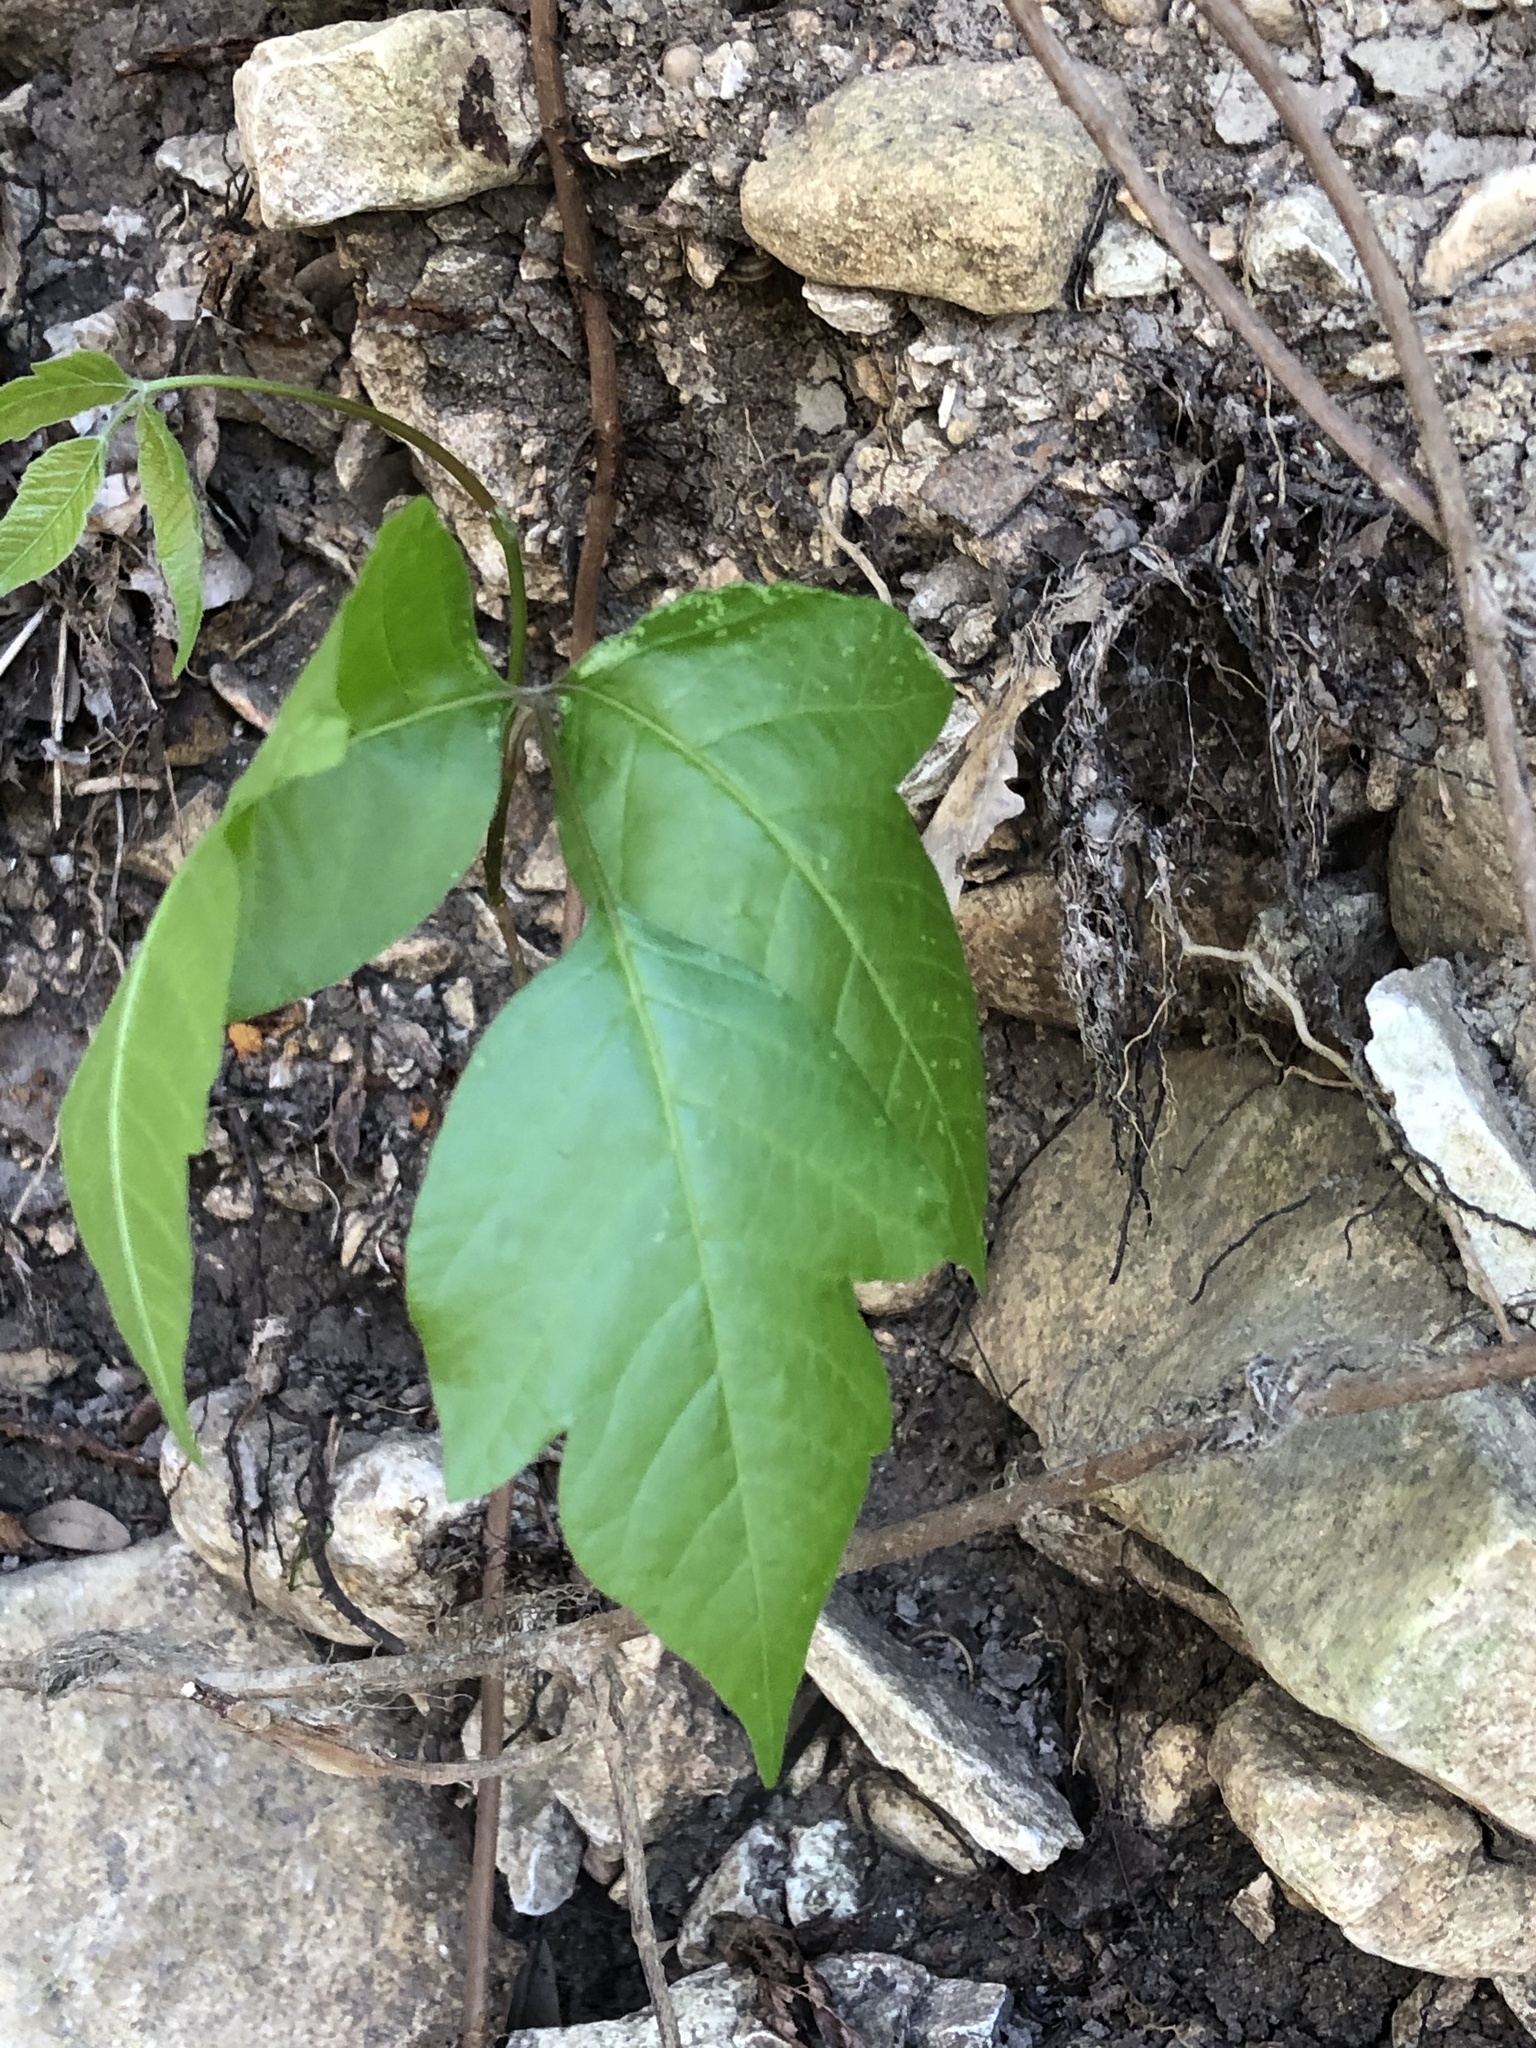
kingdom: Plantae
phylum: Tracheophyta
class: Magnoliopsida
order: Sapindales
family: Anacardiaceae
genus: Toxicodendron
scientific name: Toxicodendron radicans
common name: Poison ivy
